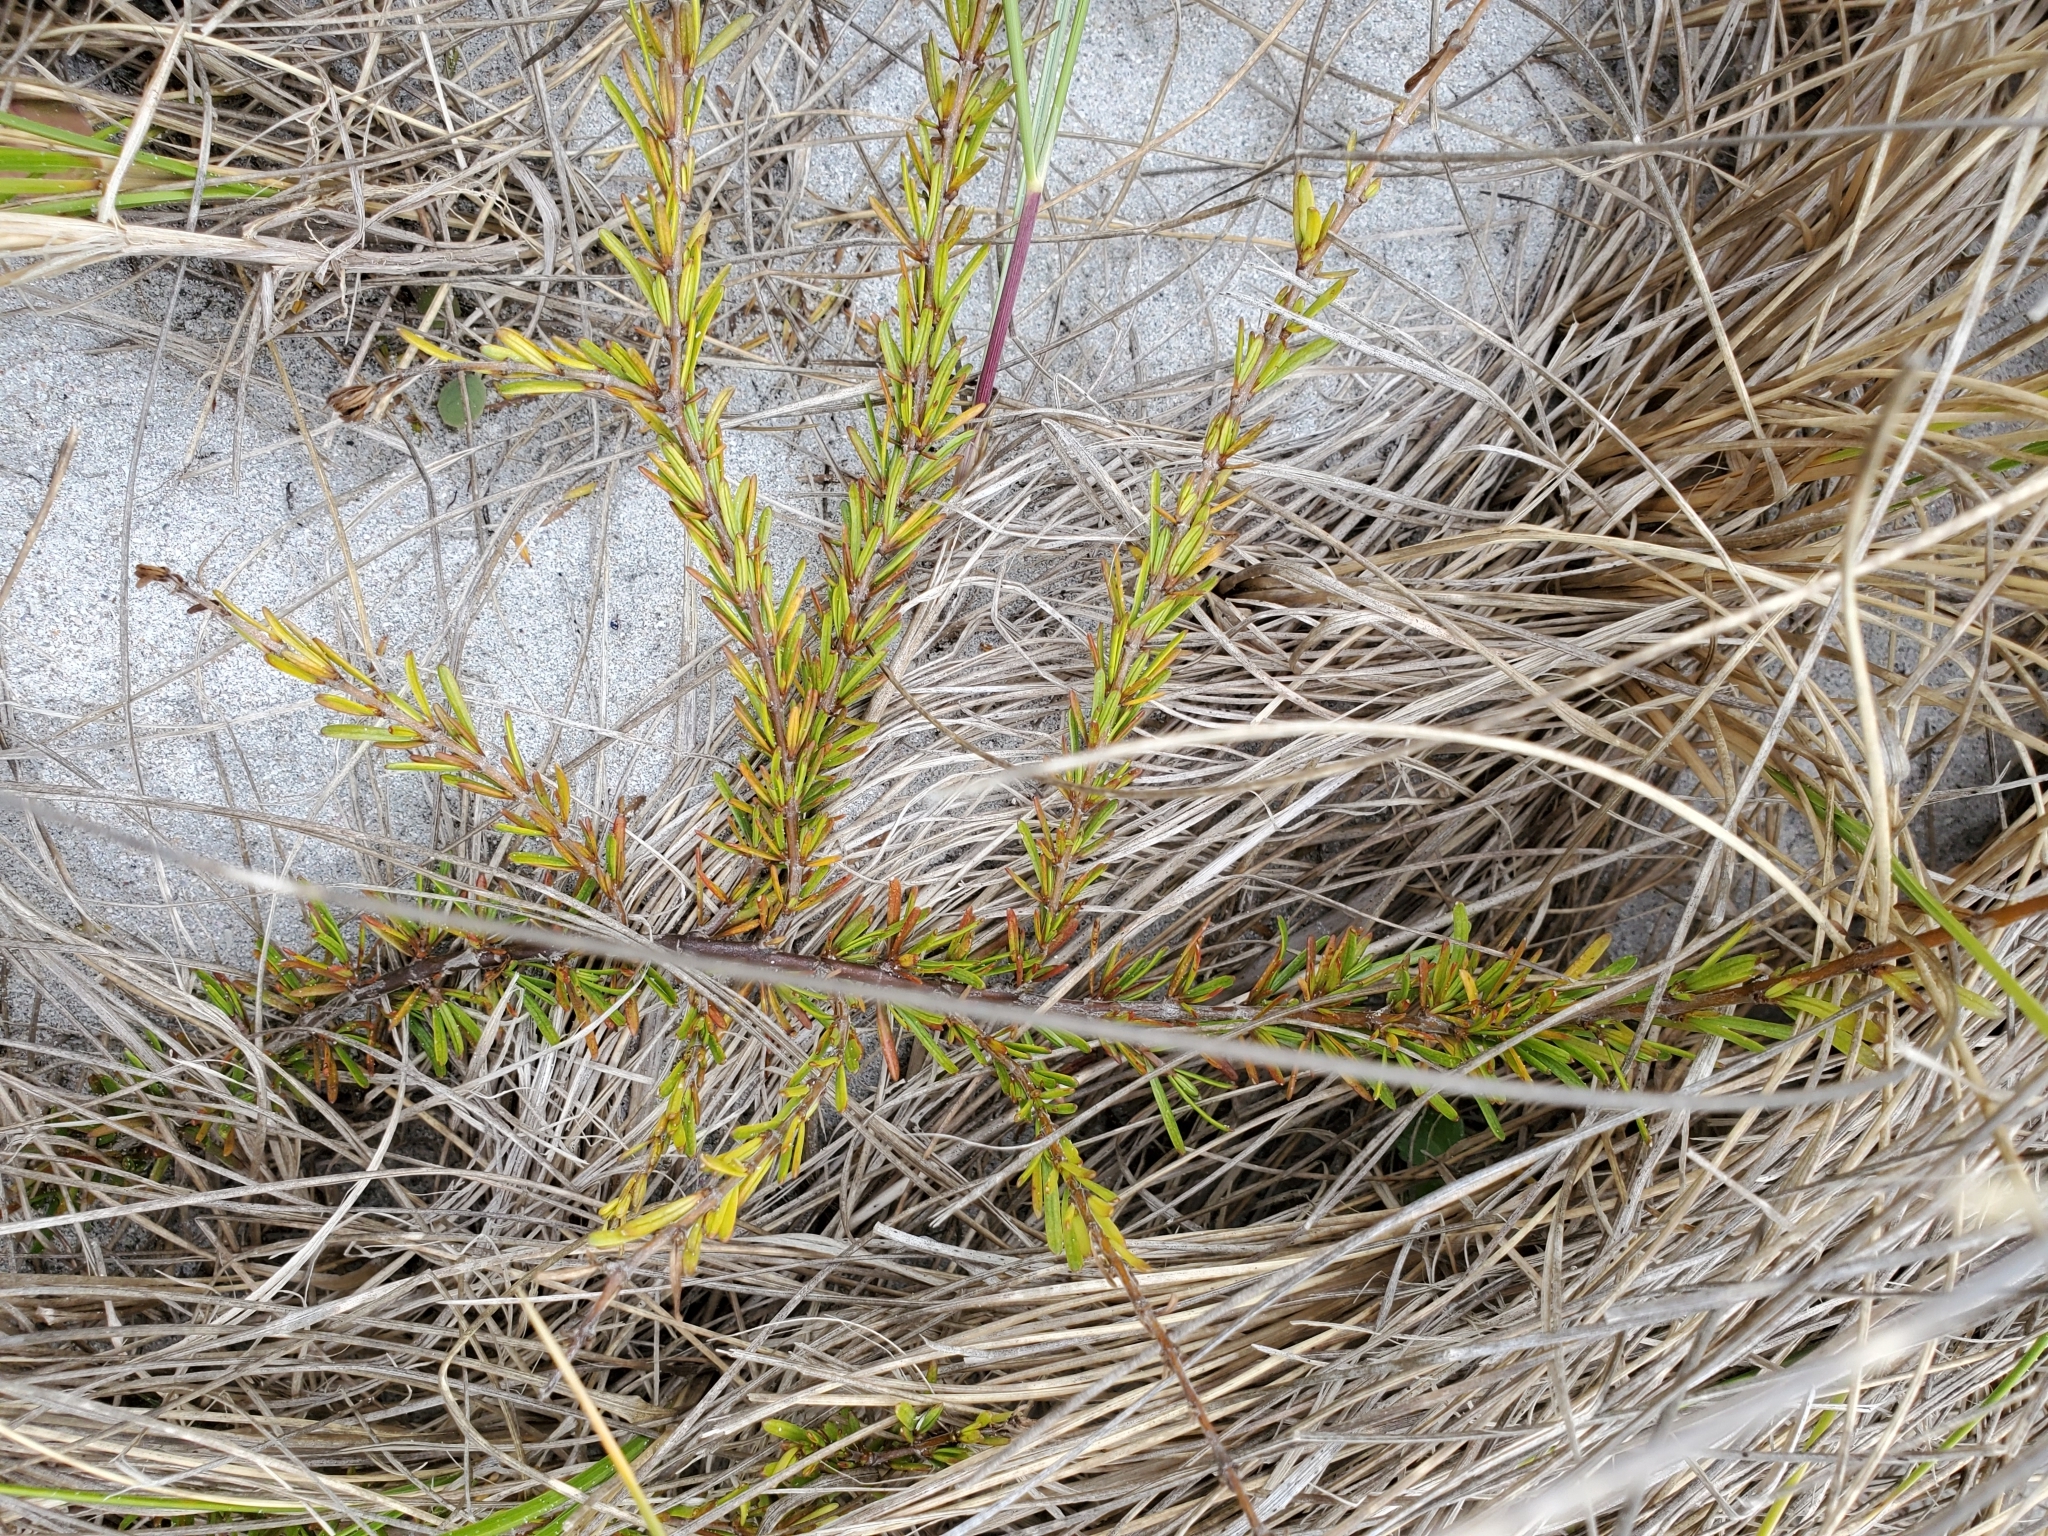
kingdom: Plantae
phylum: Tracheophyta
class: Magnoliopsida
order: Gentianales
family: Rubiaceae
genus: Coprosma
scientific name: Coprosma acerosa
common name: Sand coprosma
